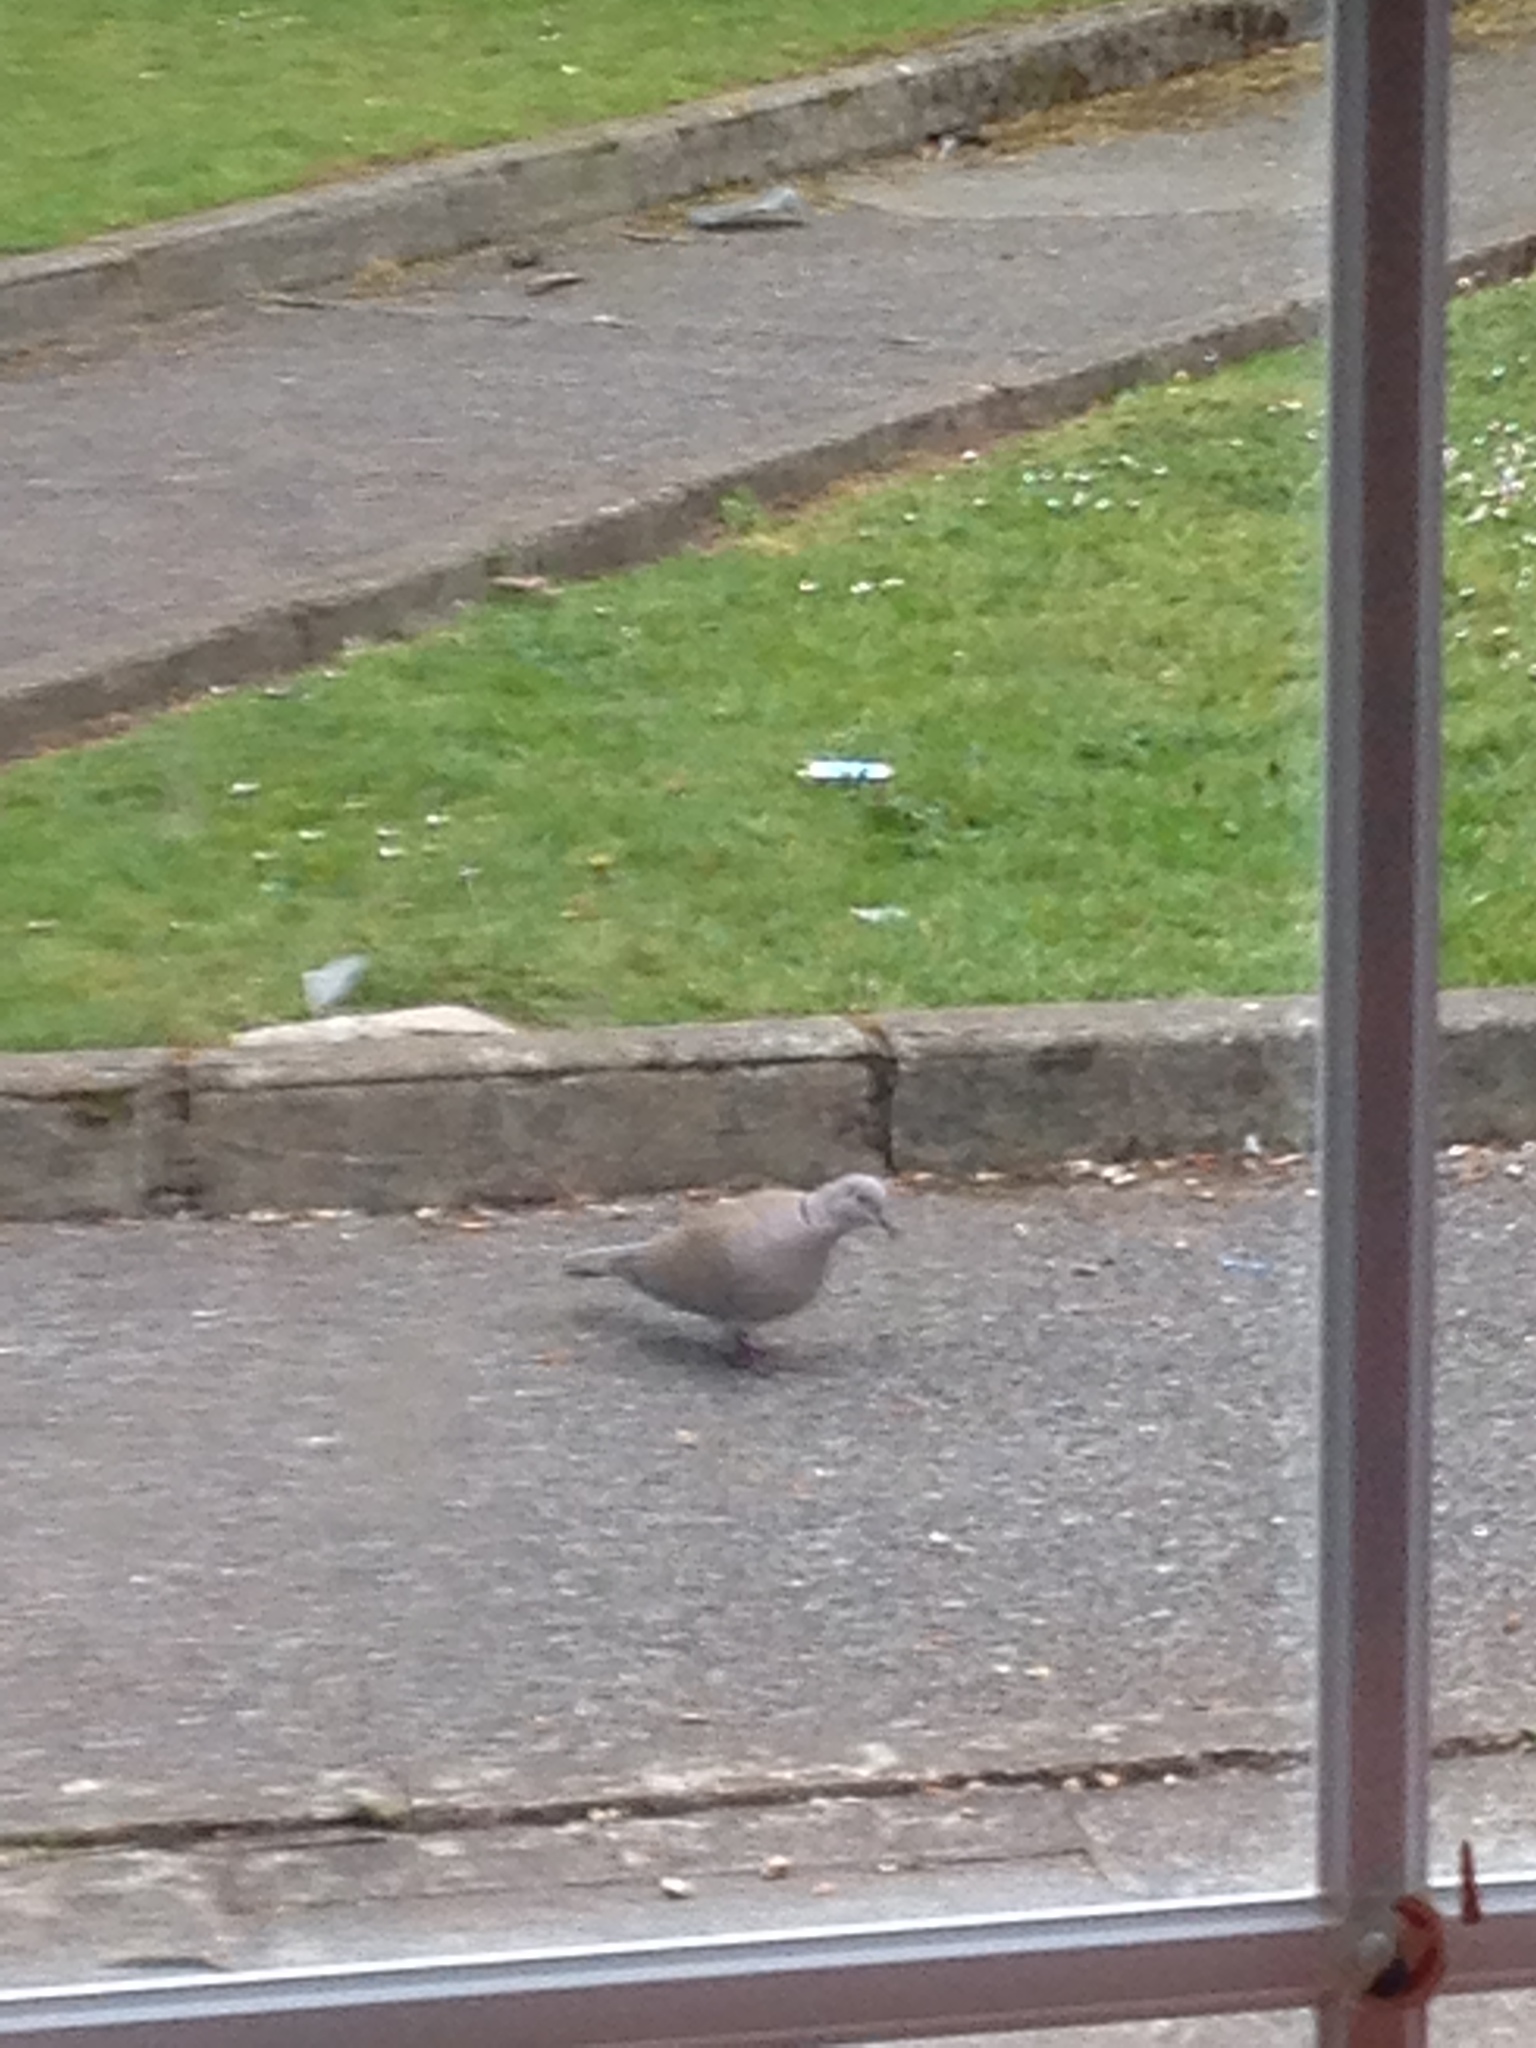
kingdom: Animalia
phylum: Chordata
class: Aves
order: Columbiformes
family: Columbidae
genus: Streptopelia
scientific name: Streptopelia decaocto
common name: Eurasian collared dove
